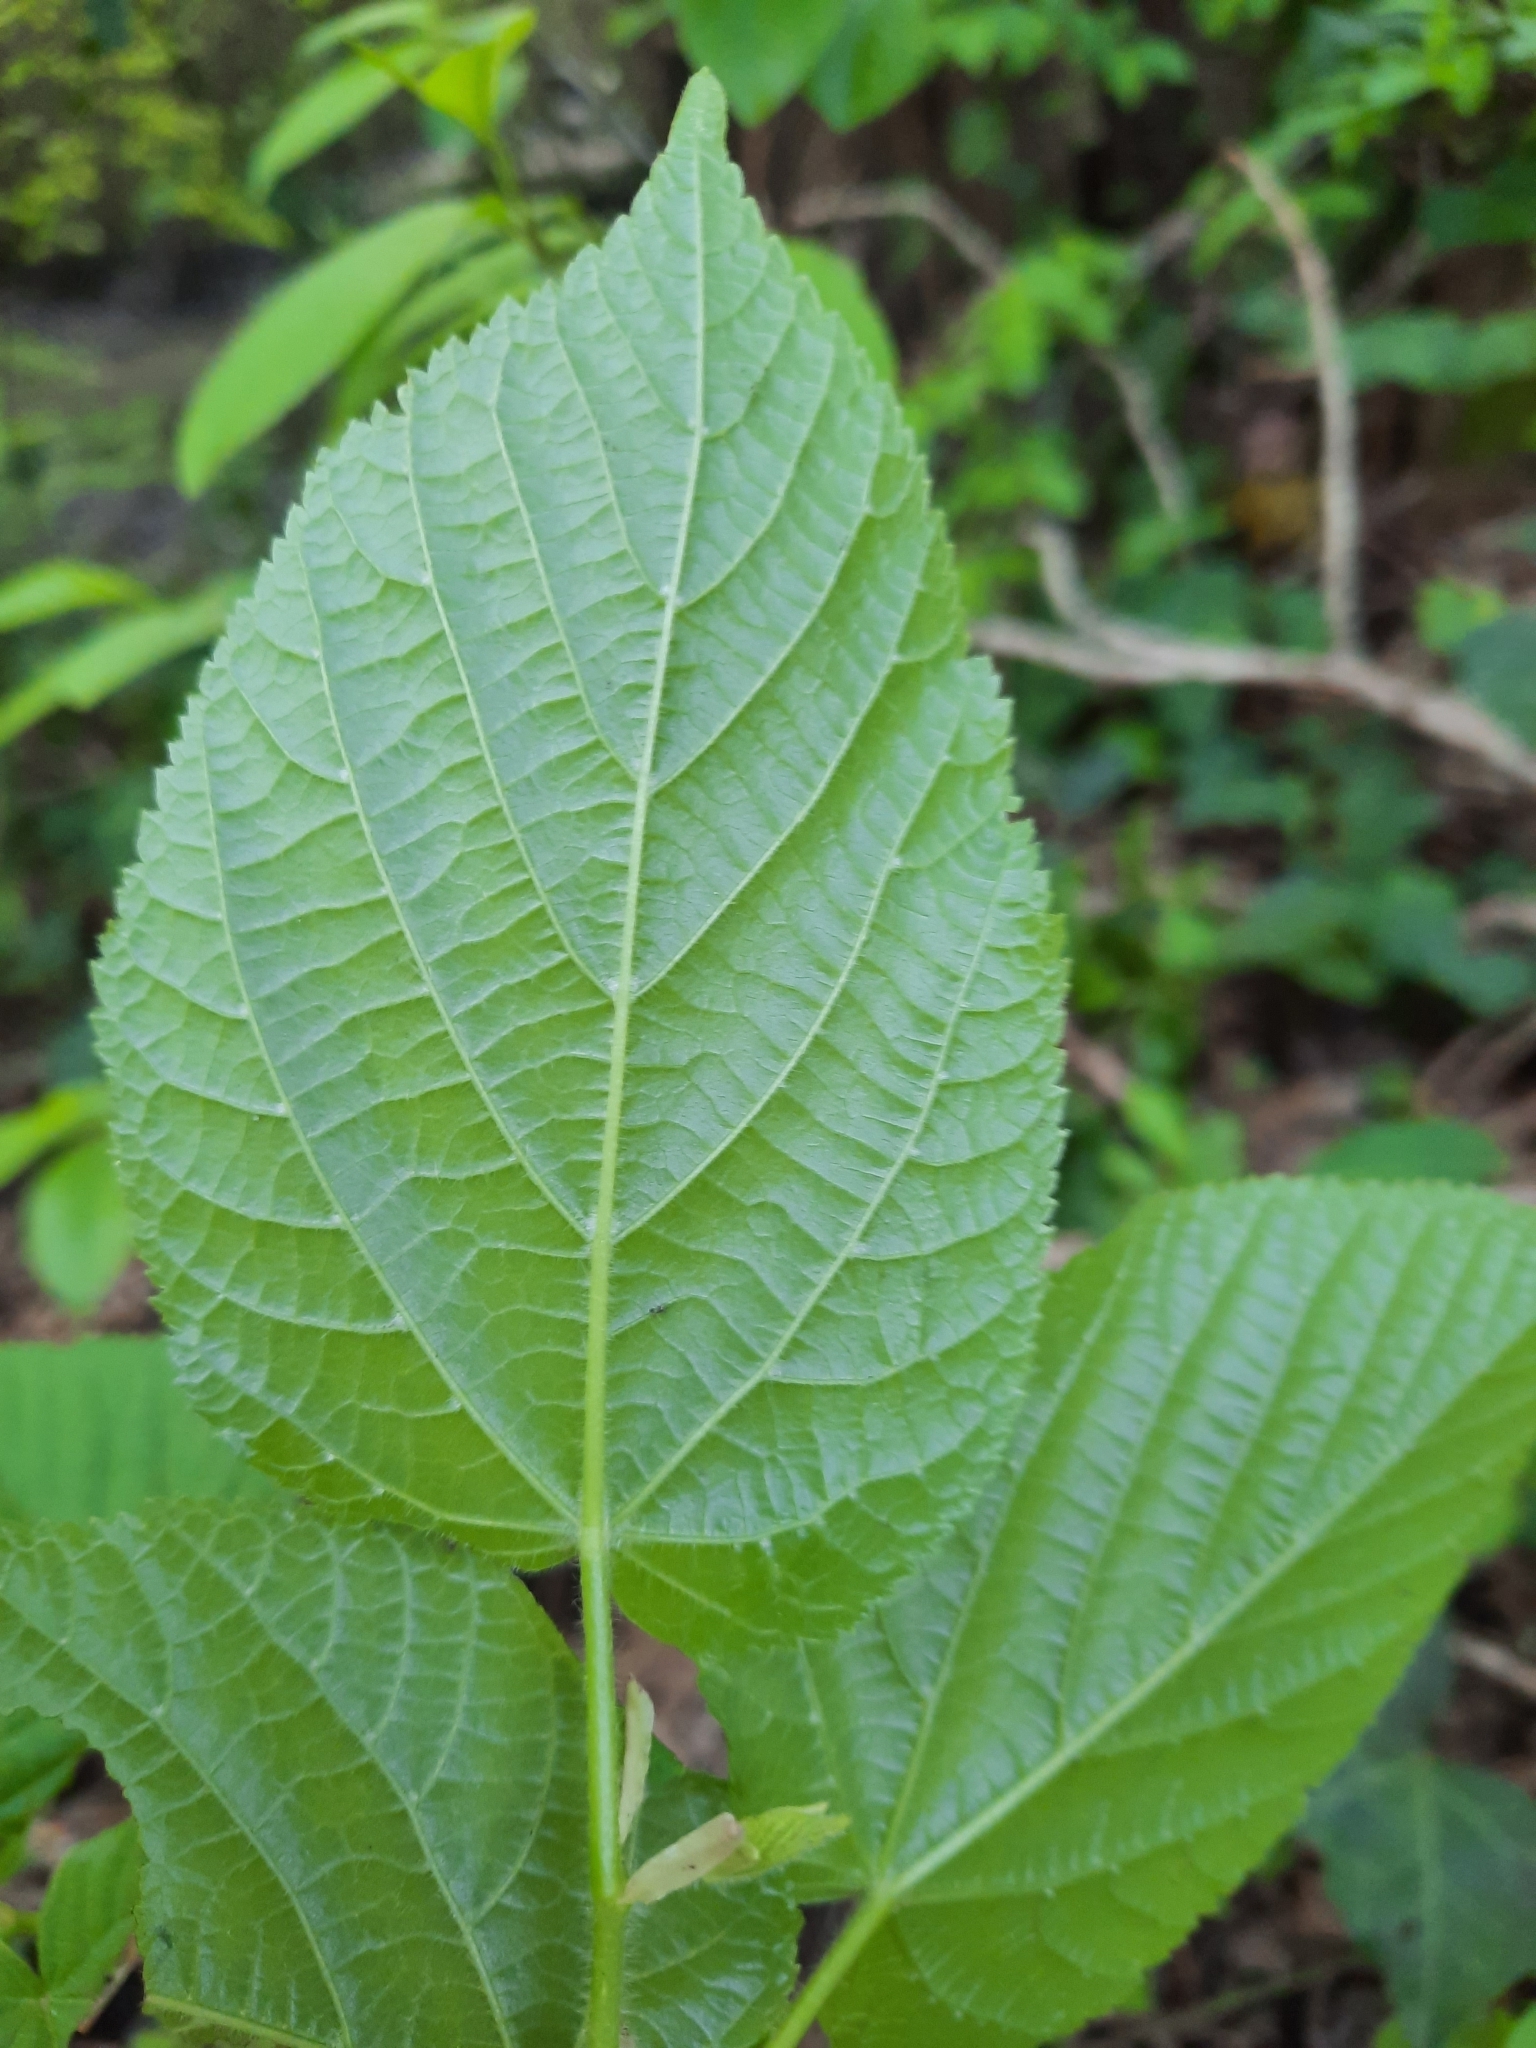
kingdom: Plantae
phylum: Tracheophyta
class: Magnoliopsida
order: Malvales
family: Malvaceae
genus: Tilia
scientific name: Tilia platyphyllos
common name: Large-leaved lime
